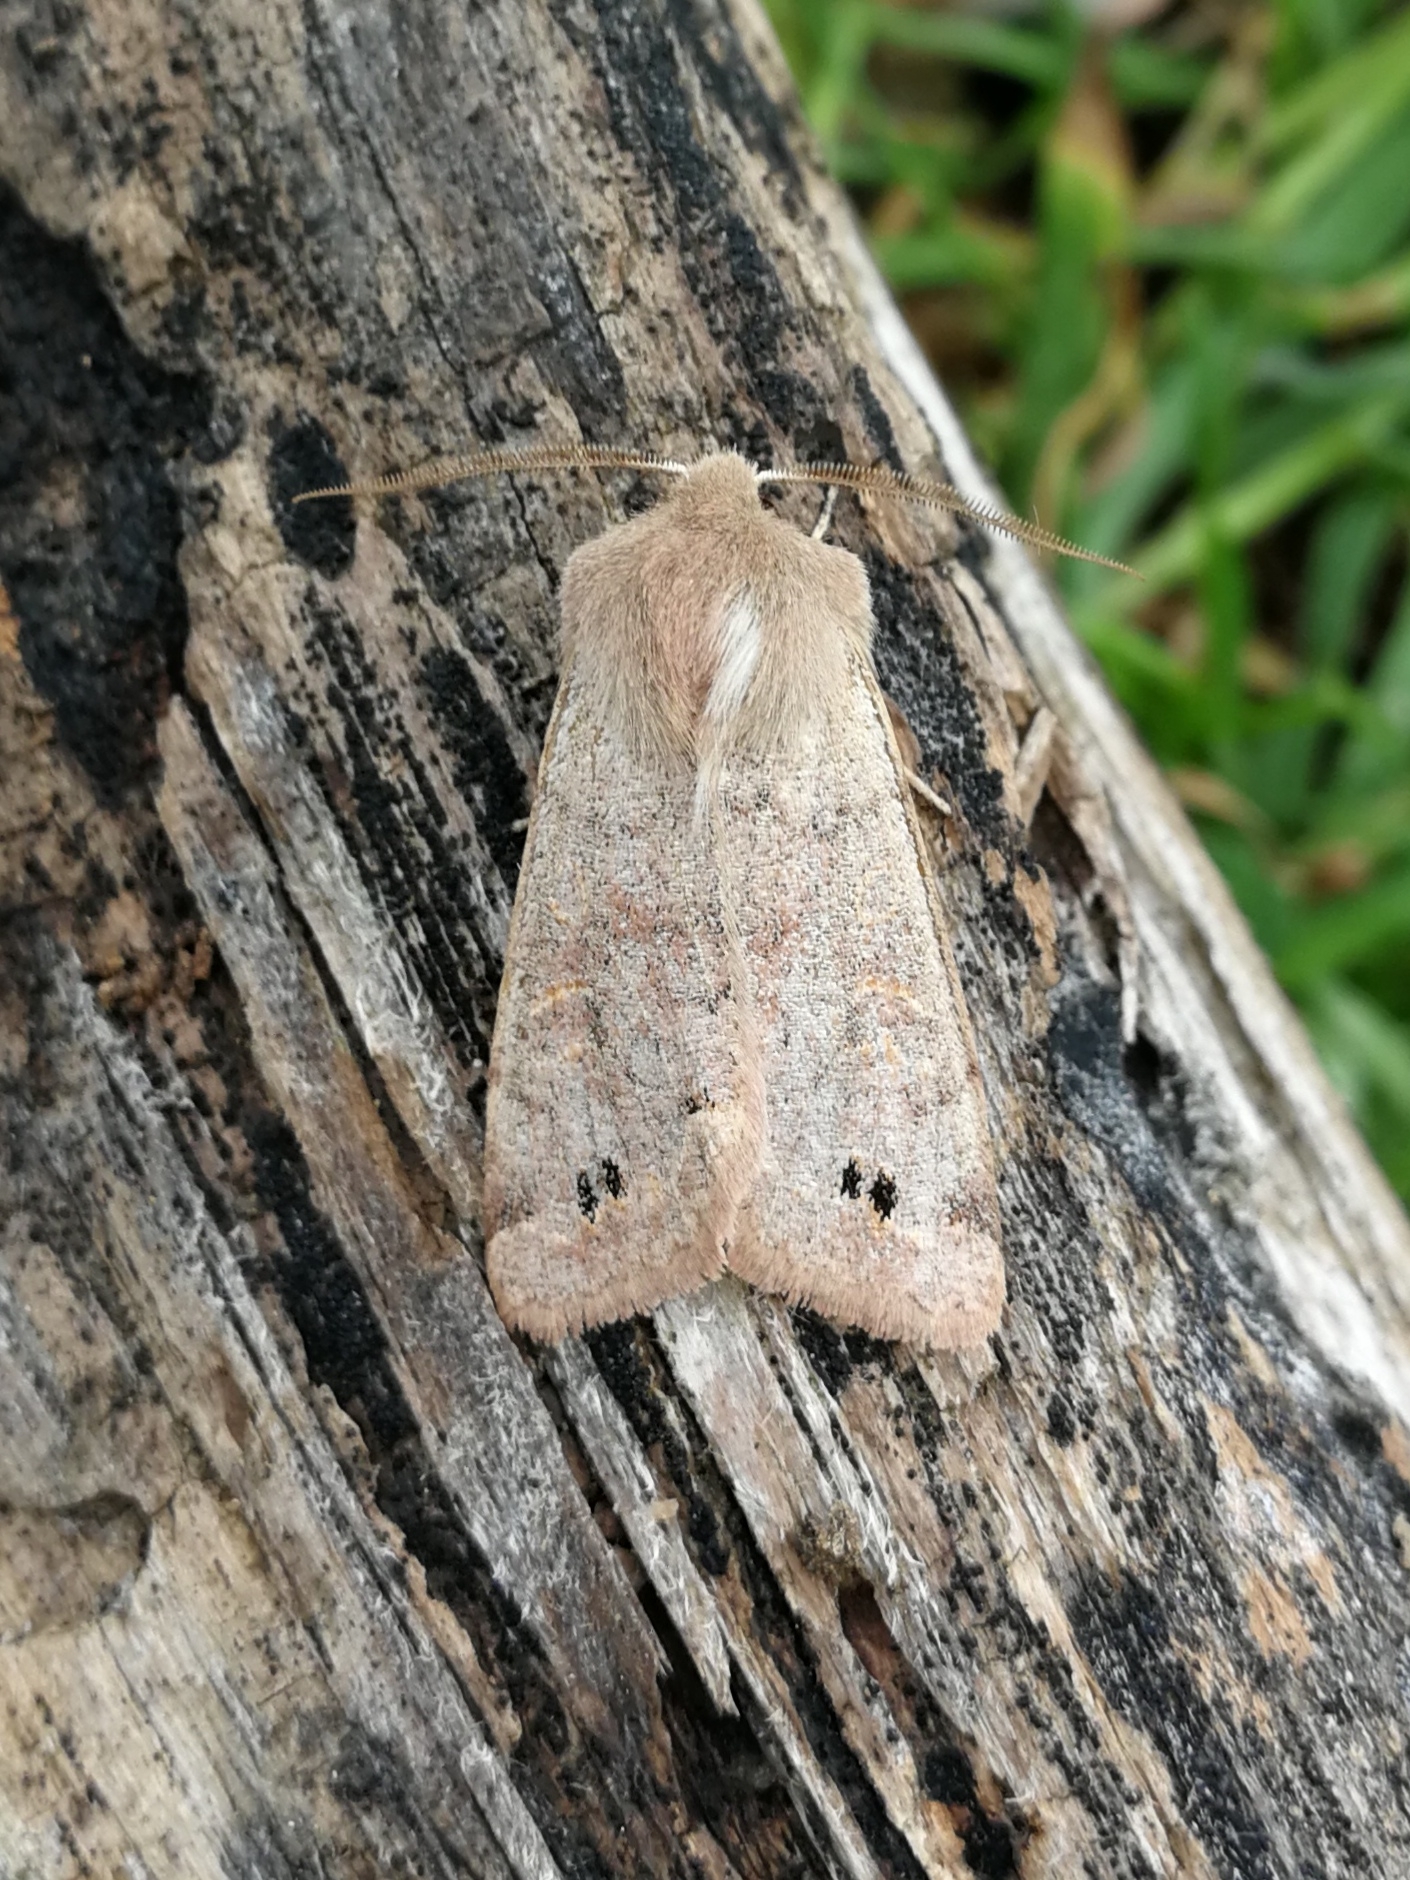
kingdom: Animalia
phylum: Arthropoda
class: Insecta
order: Lepidoptera
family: Noctuidae
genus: Anorthoa
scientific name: Anorthoa munda
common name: Twin-spotted quaker
